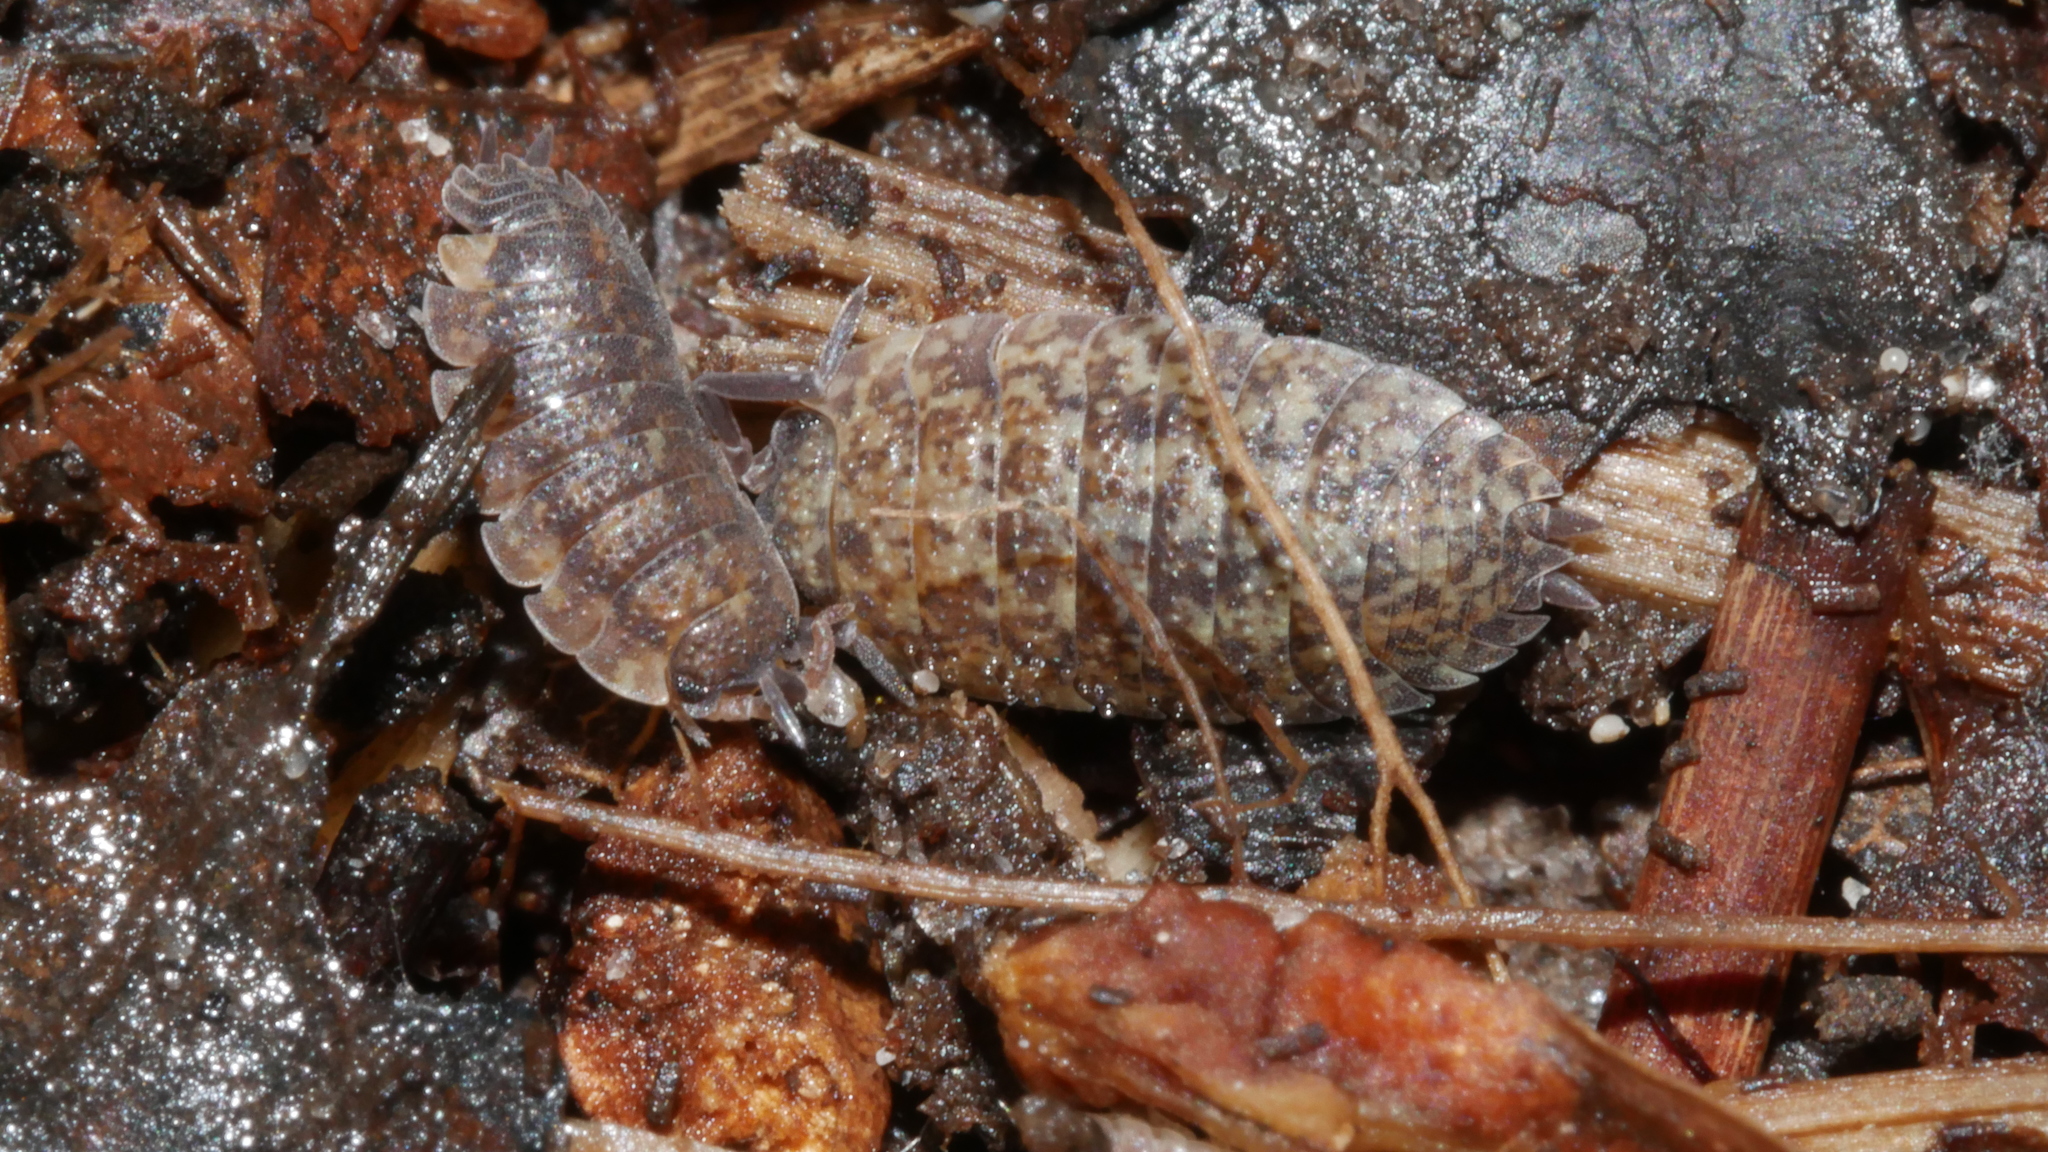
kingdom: Animalia
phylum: Arthropoda
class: Malacostraca
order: Isopoda
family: Porcellionidae
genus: Porcellio
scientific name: Porcellio scaber
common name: Common rough woodlouse
